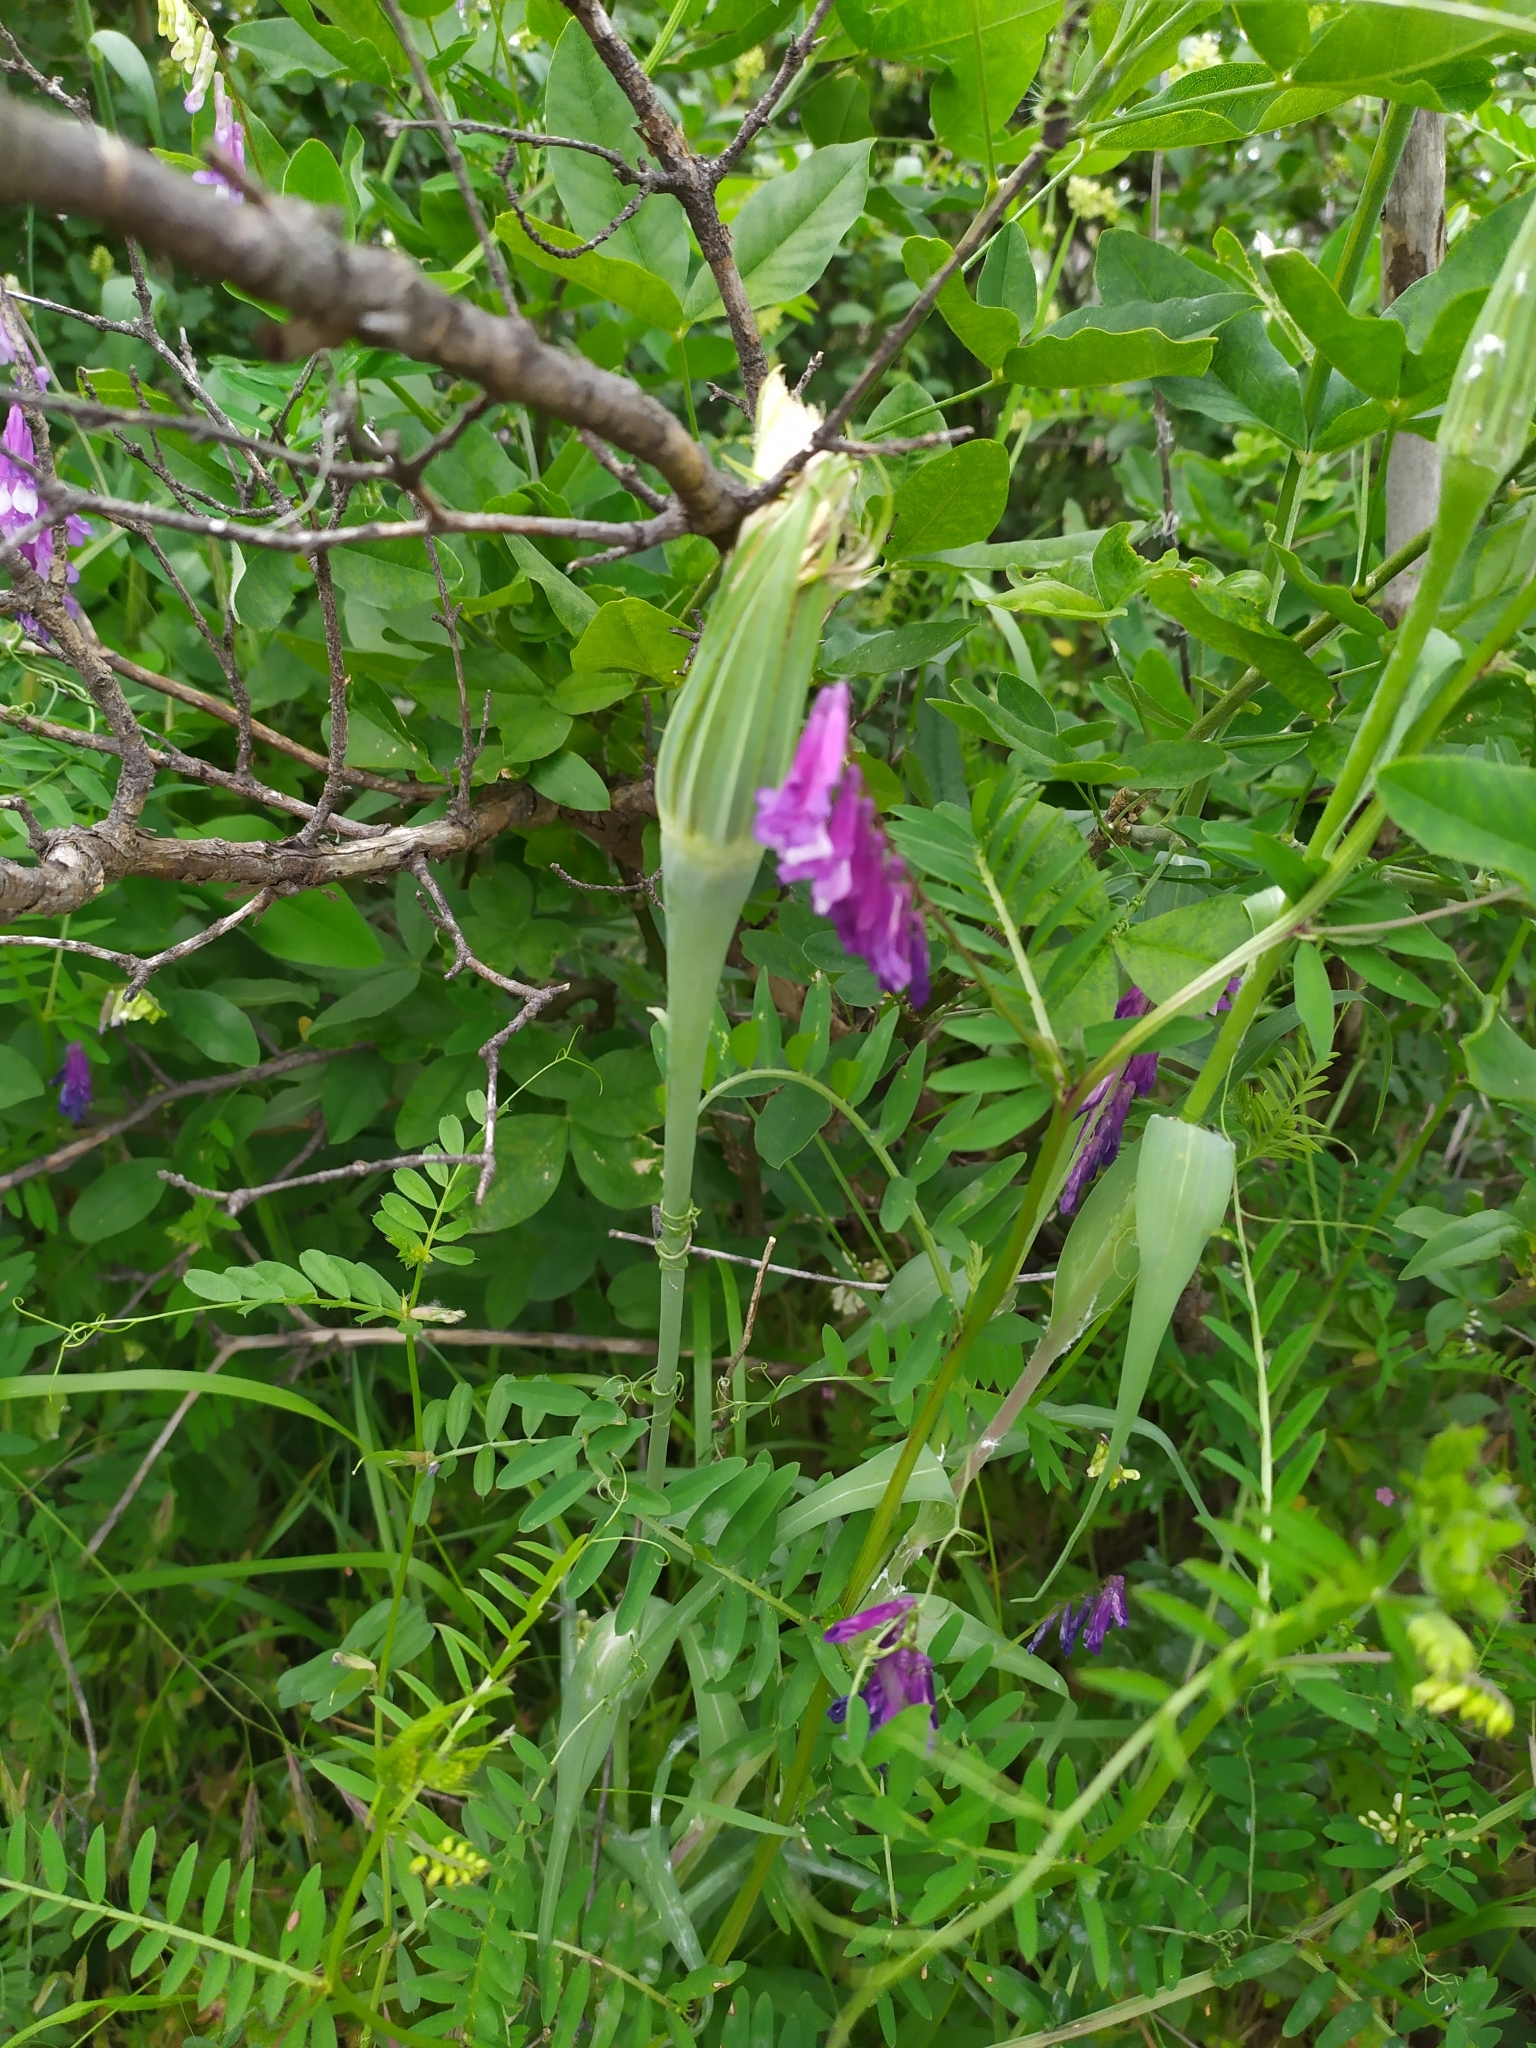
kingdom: Plantae
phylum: Tracheophyta
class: Magnoliopsida
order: Asterales
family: Asteraceae
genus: Tragopogon
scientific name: Tragopogon dubius
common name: Yellow salsify
